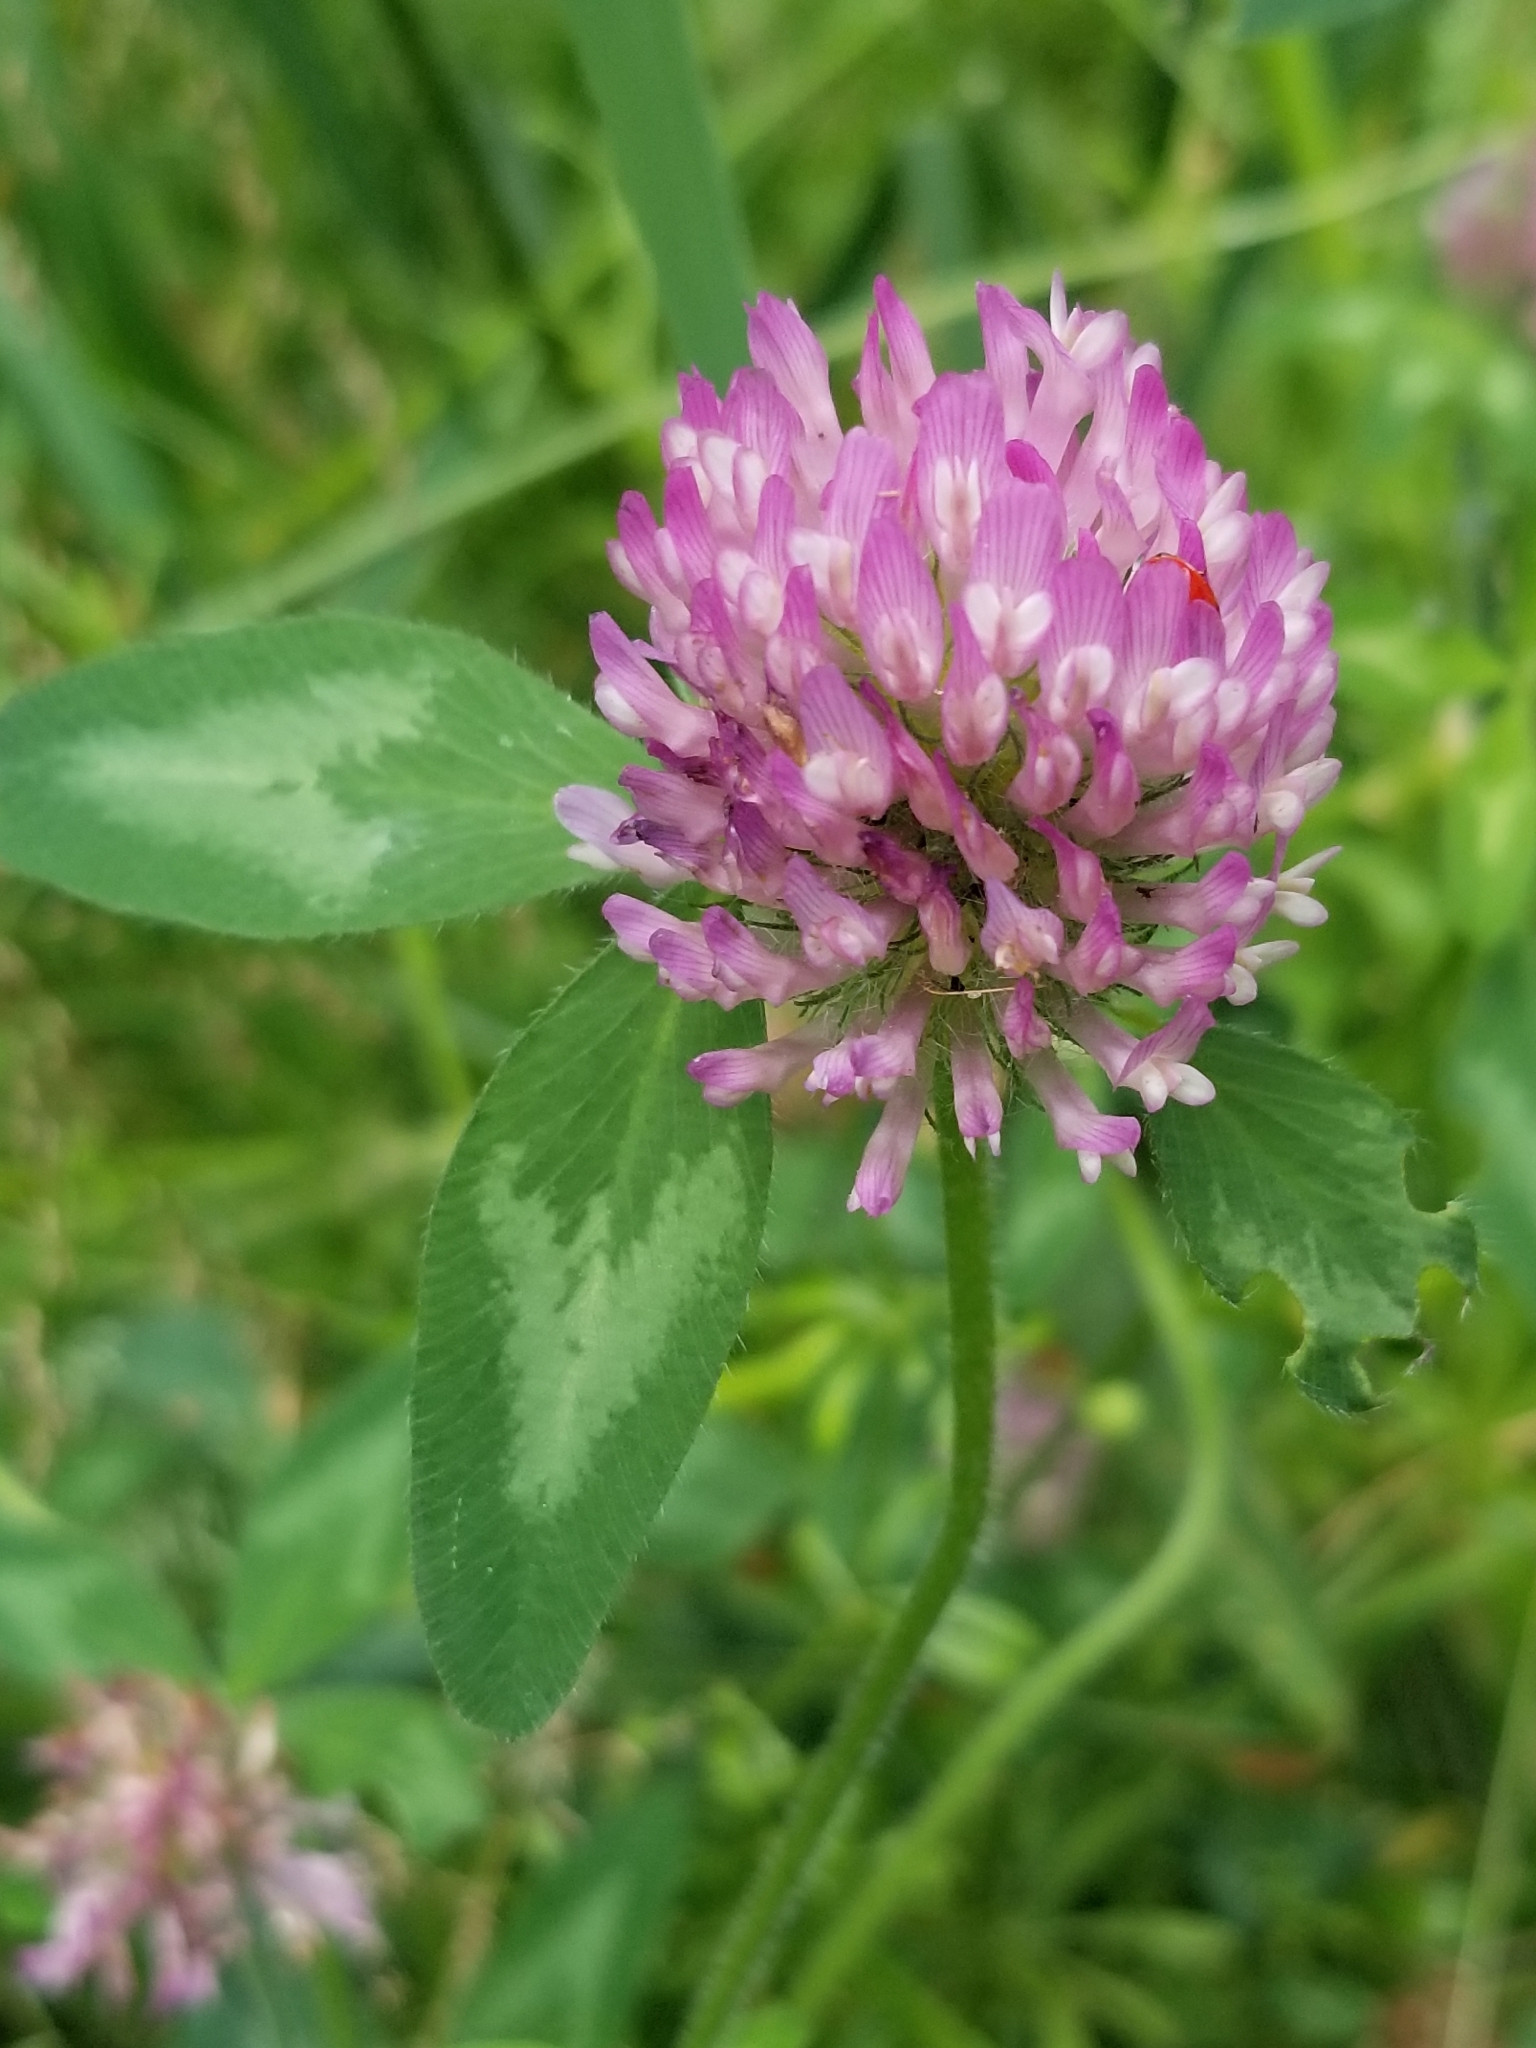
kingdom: Plantae
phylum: Tracheophyta
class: Magnoliopsida
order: Fabales
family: Fabaceae
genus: Trifolium
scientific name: Trifolium pratense
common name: Red clover
